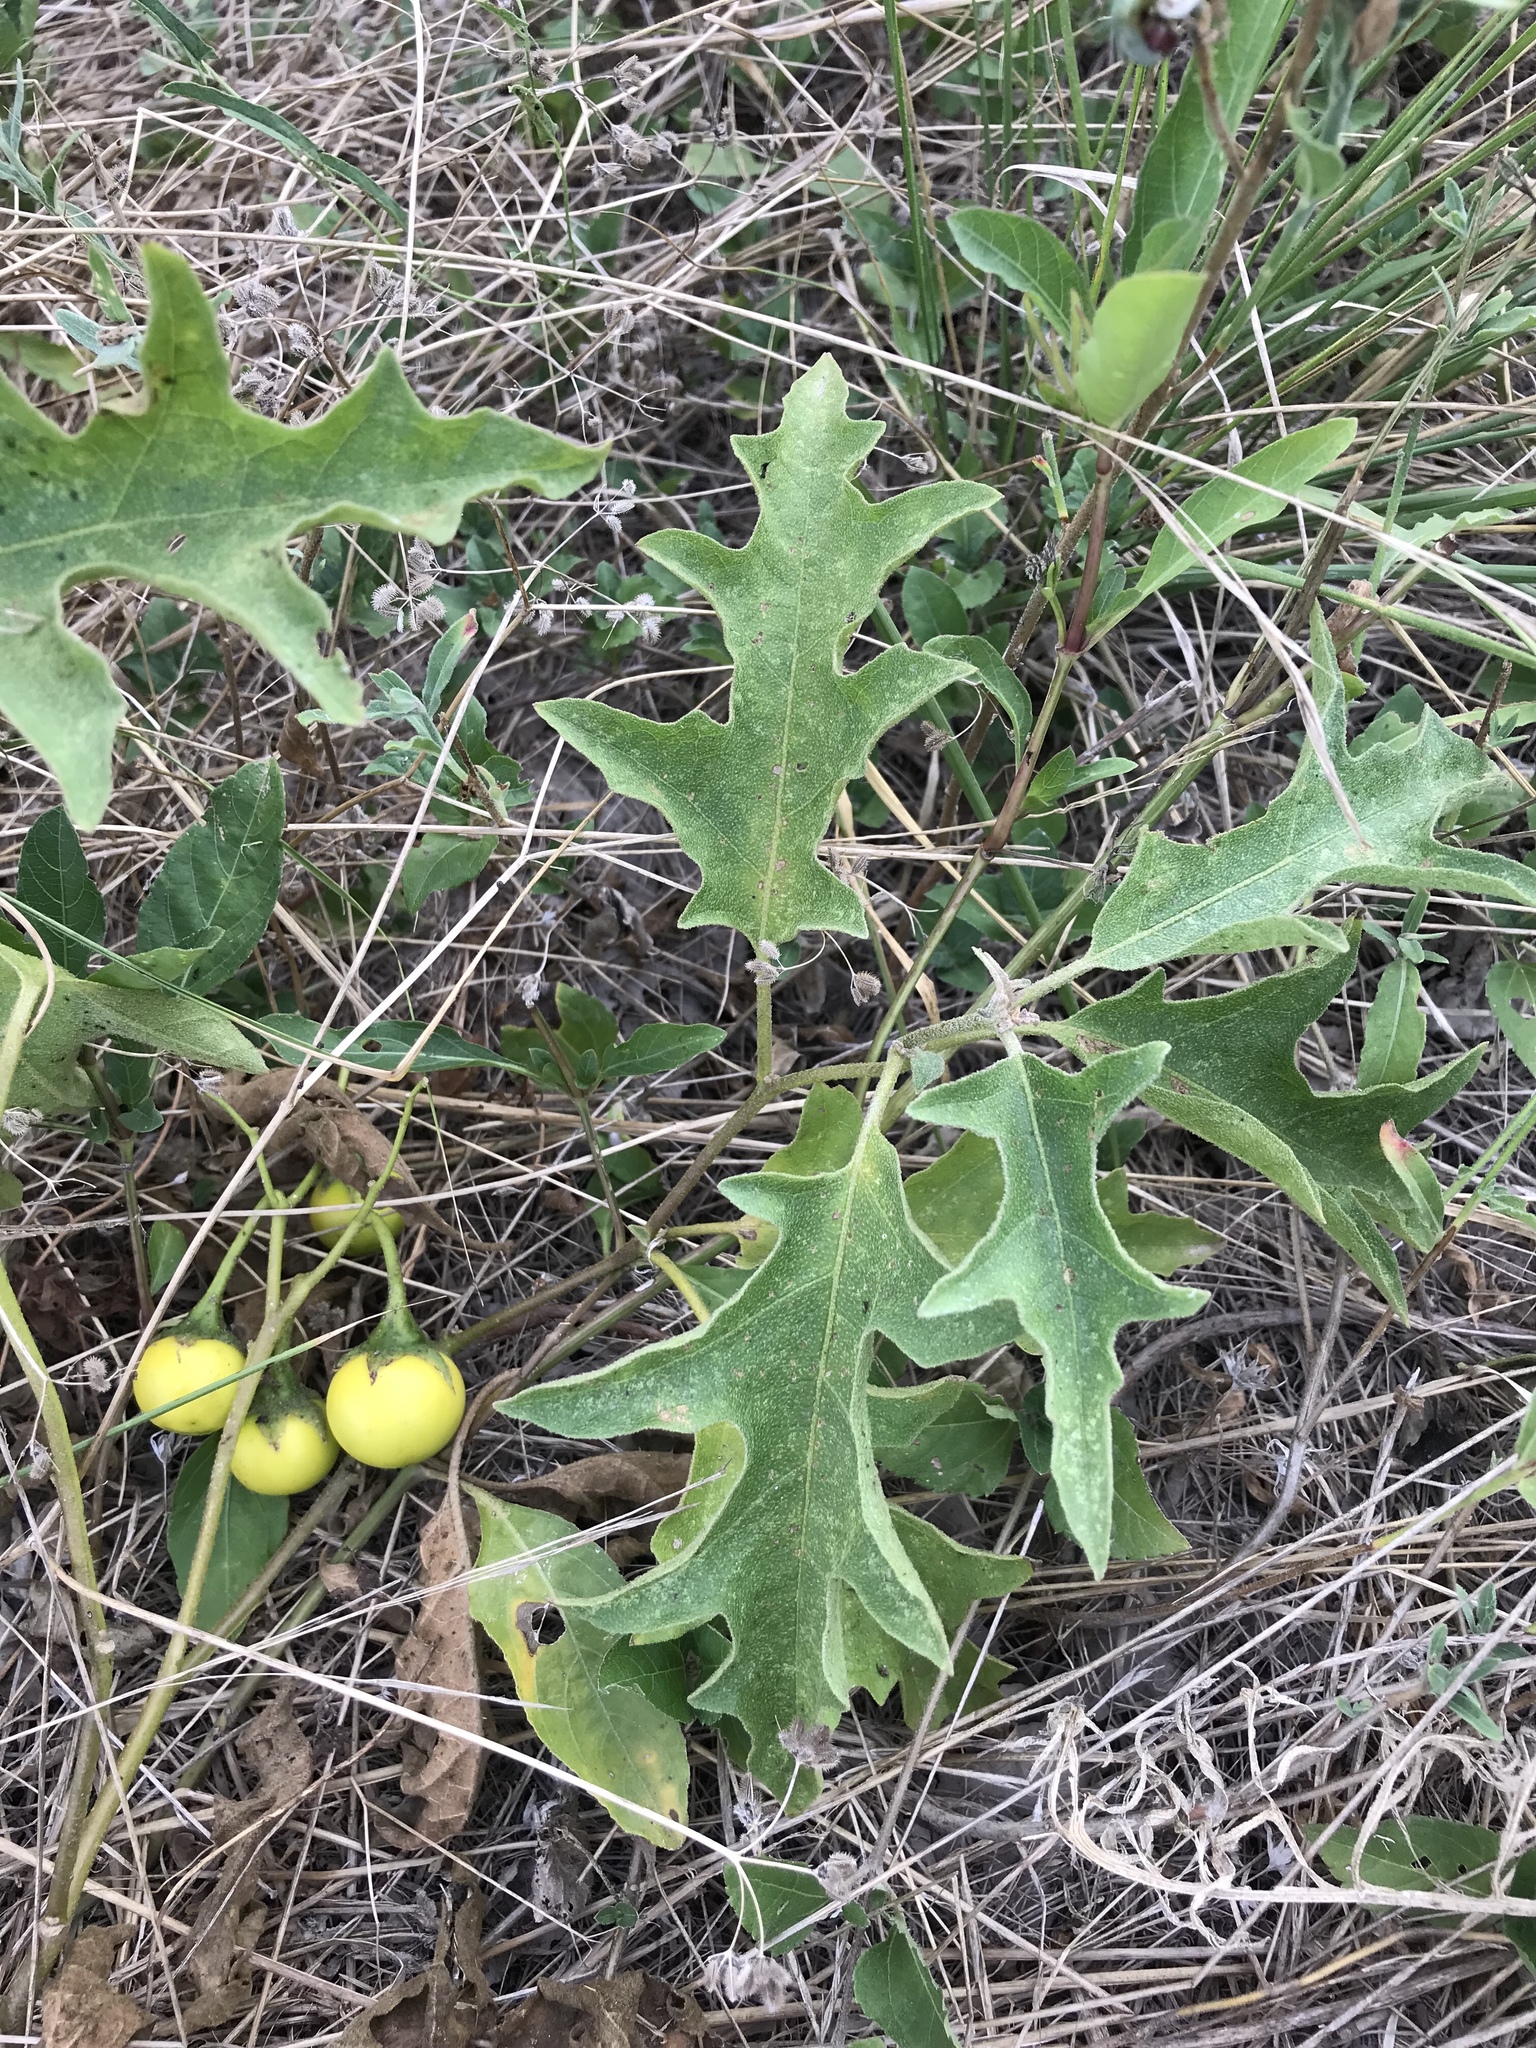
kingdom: Plantae
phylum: Tracheophyta
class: Magnoliopsida
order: Solanales
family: Solanaceae
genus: Solanum
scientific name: Solanum dimidiatum
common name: Carolina horse-nettle
